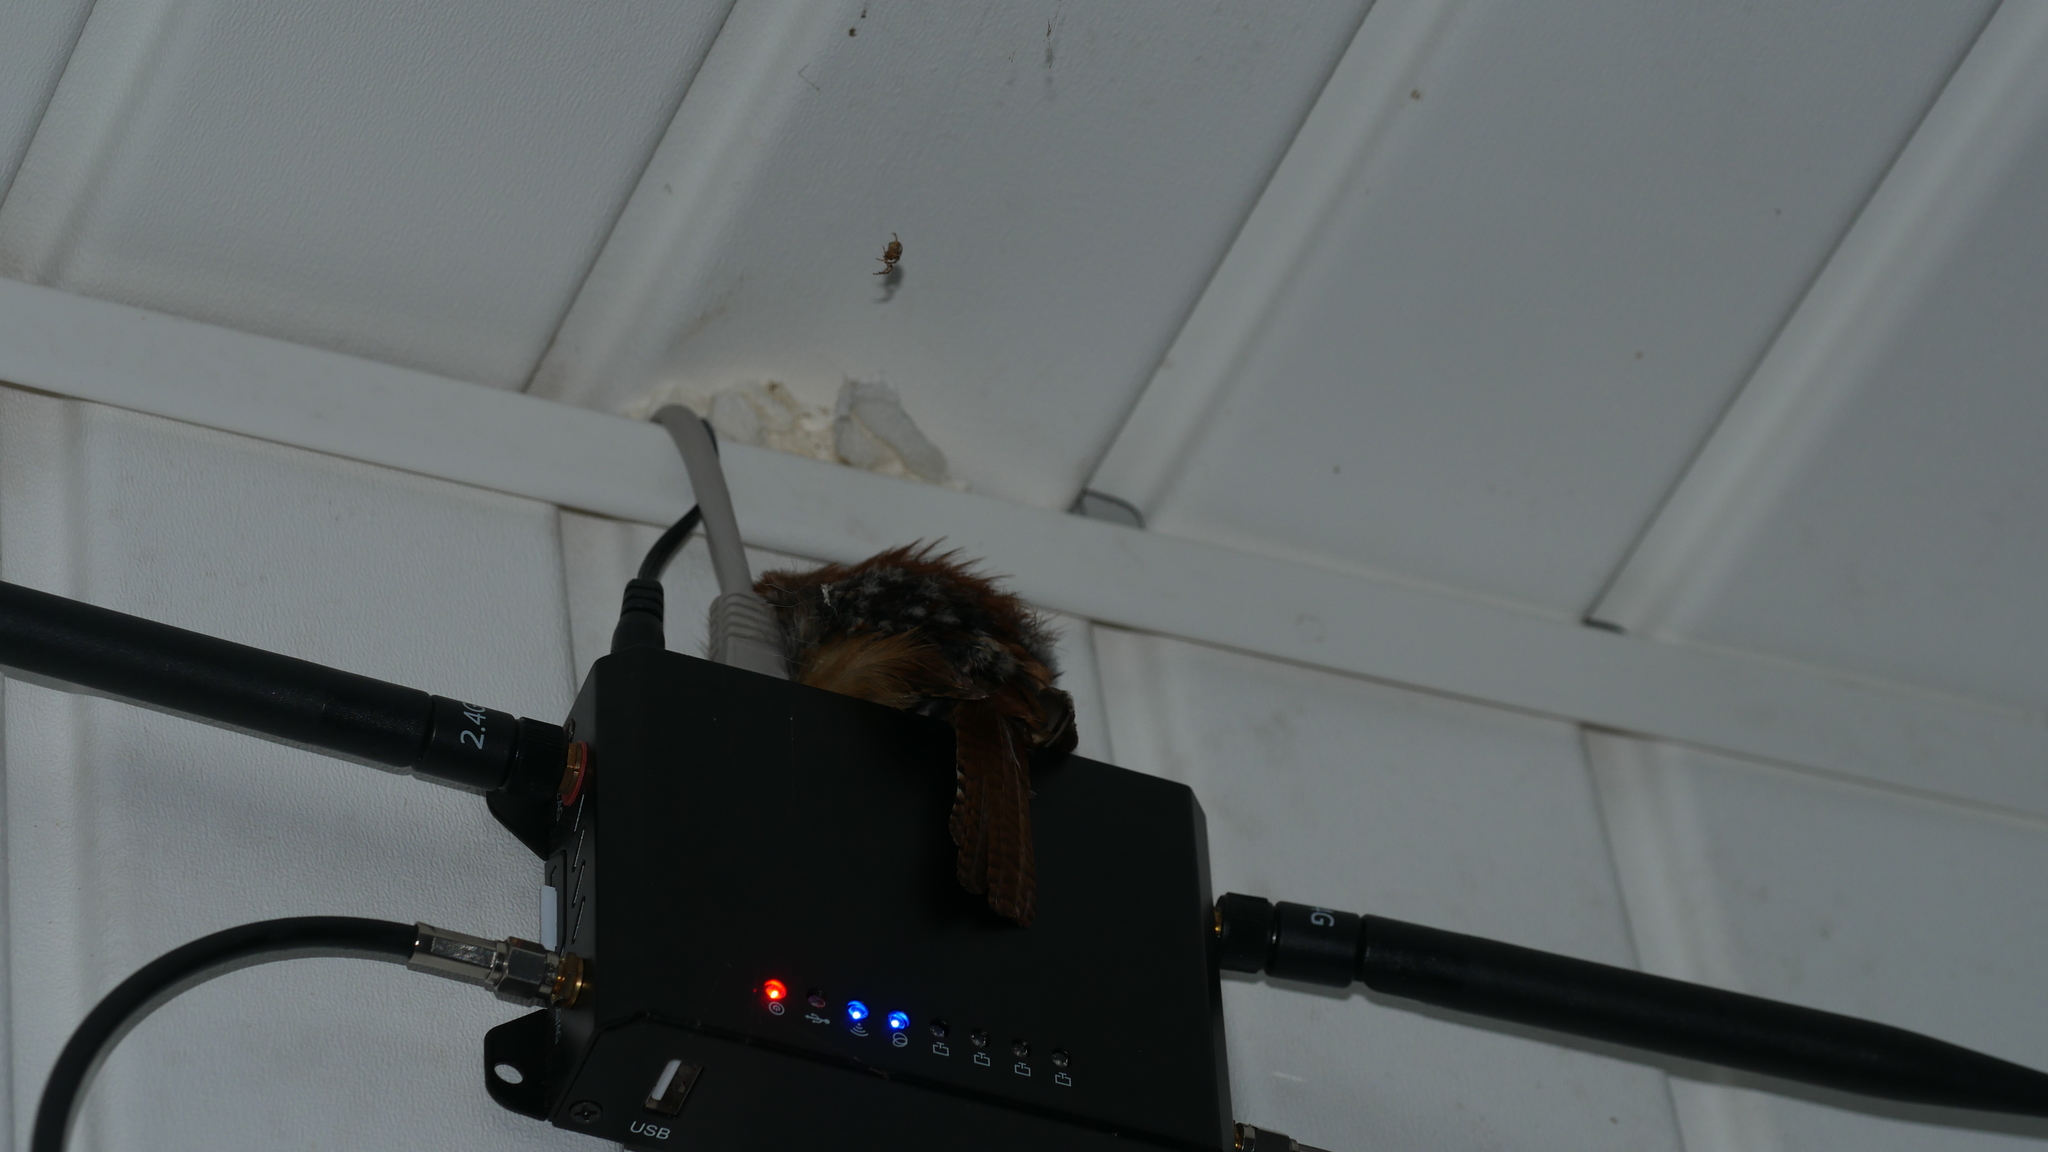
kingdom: Animalia
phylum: Chordata
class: Aves
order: Passeriformes
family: Troglodytidae
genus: Thryothorus
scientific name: Thryothorus ludovicianus
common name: Carolina wren
